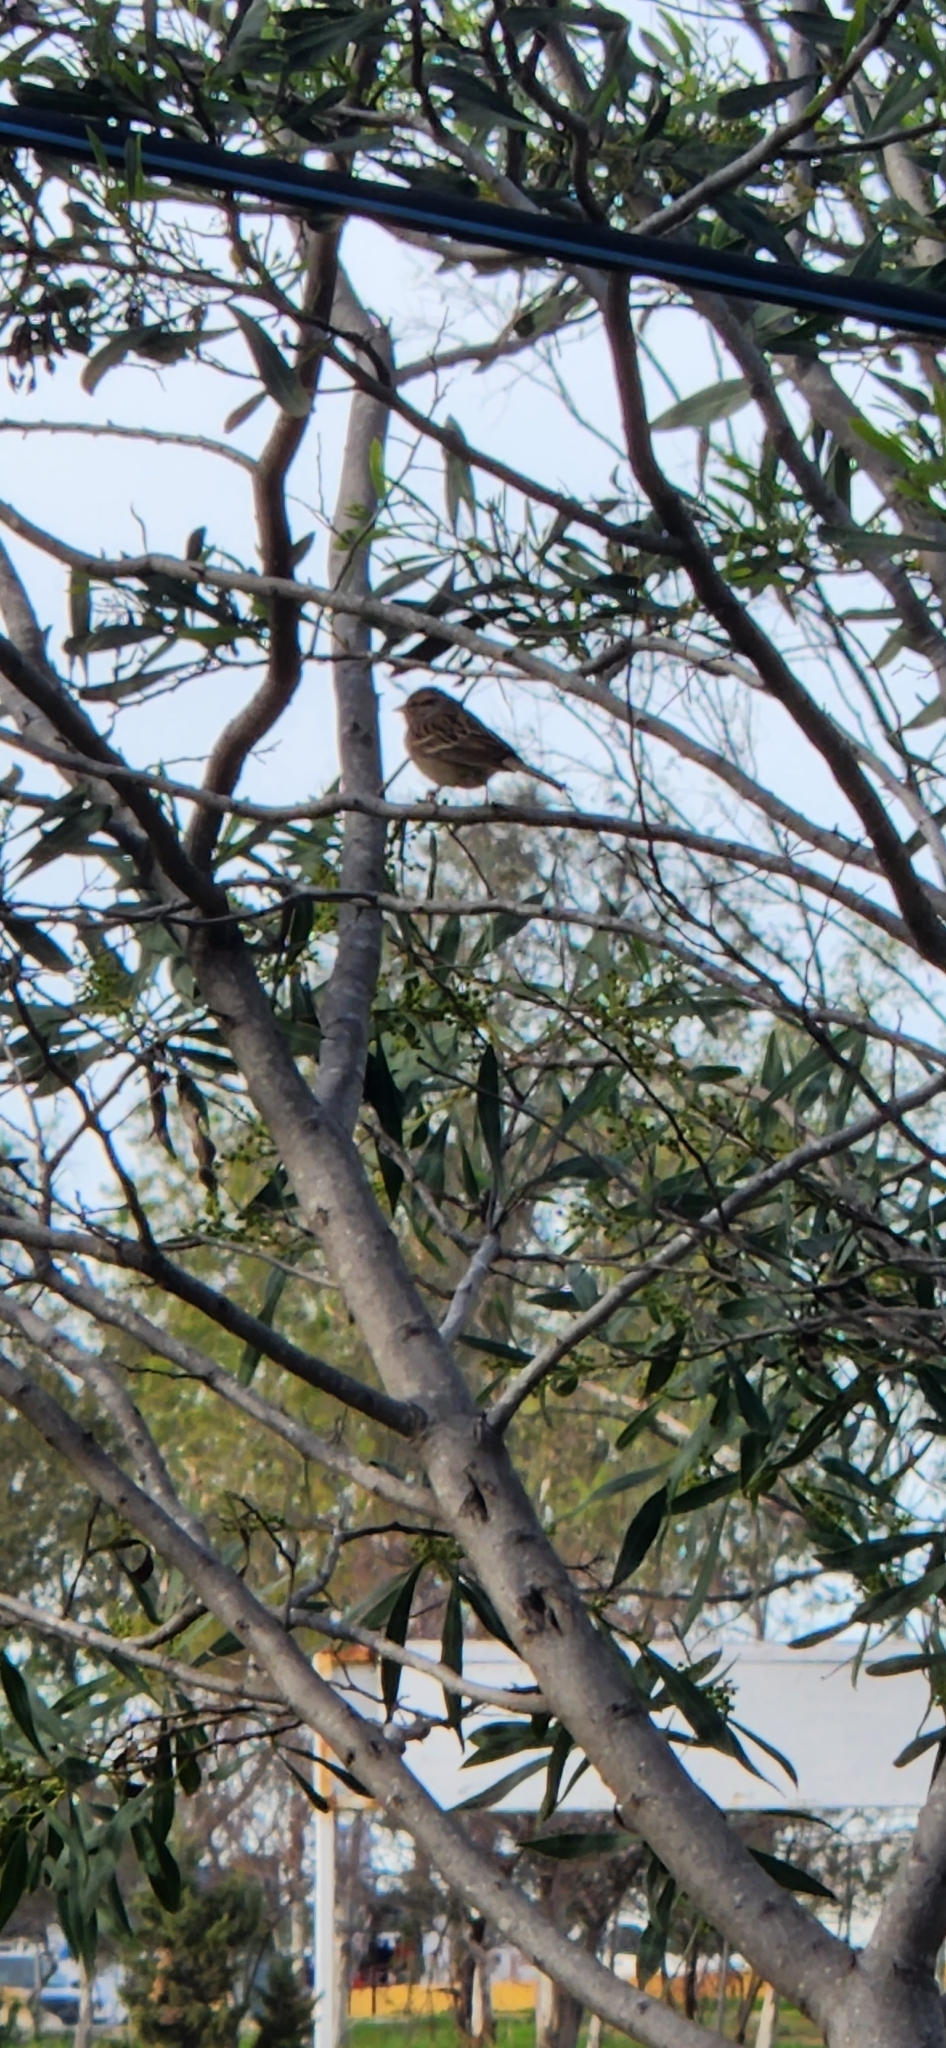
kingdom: Animalia
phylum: Chordata
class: Aves
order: Passeriformes
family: Passerellidae
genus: Zonotrichia
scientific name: Zonotrichia leucophrys
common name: White-crowned sparrow
